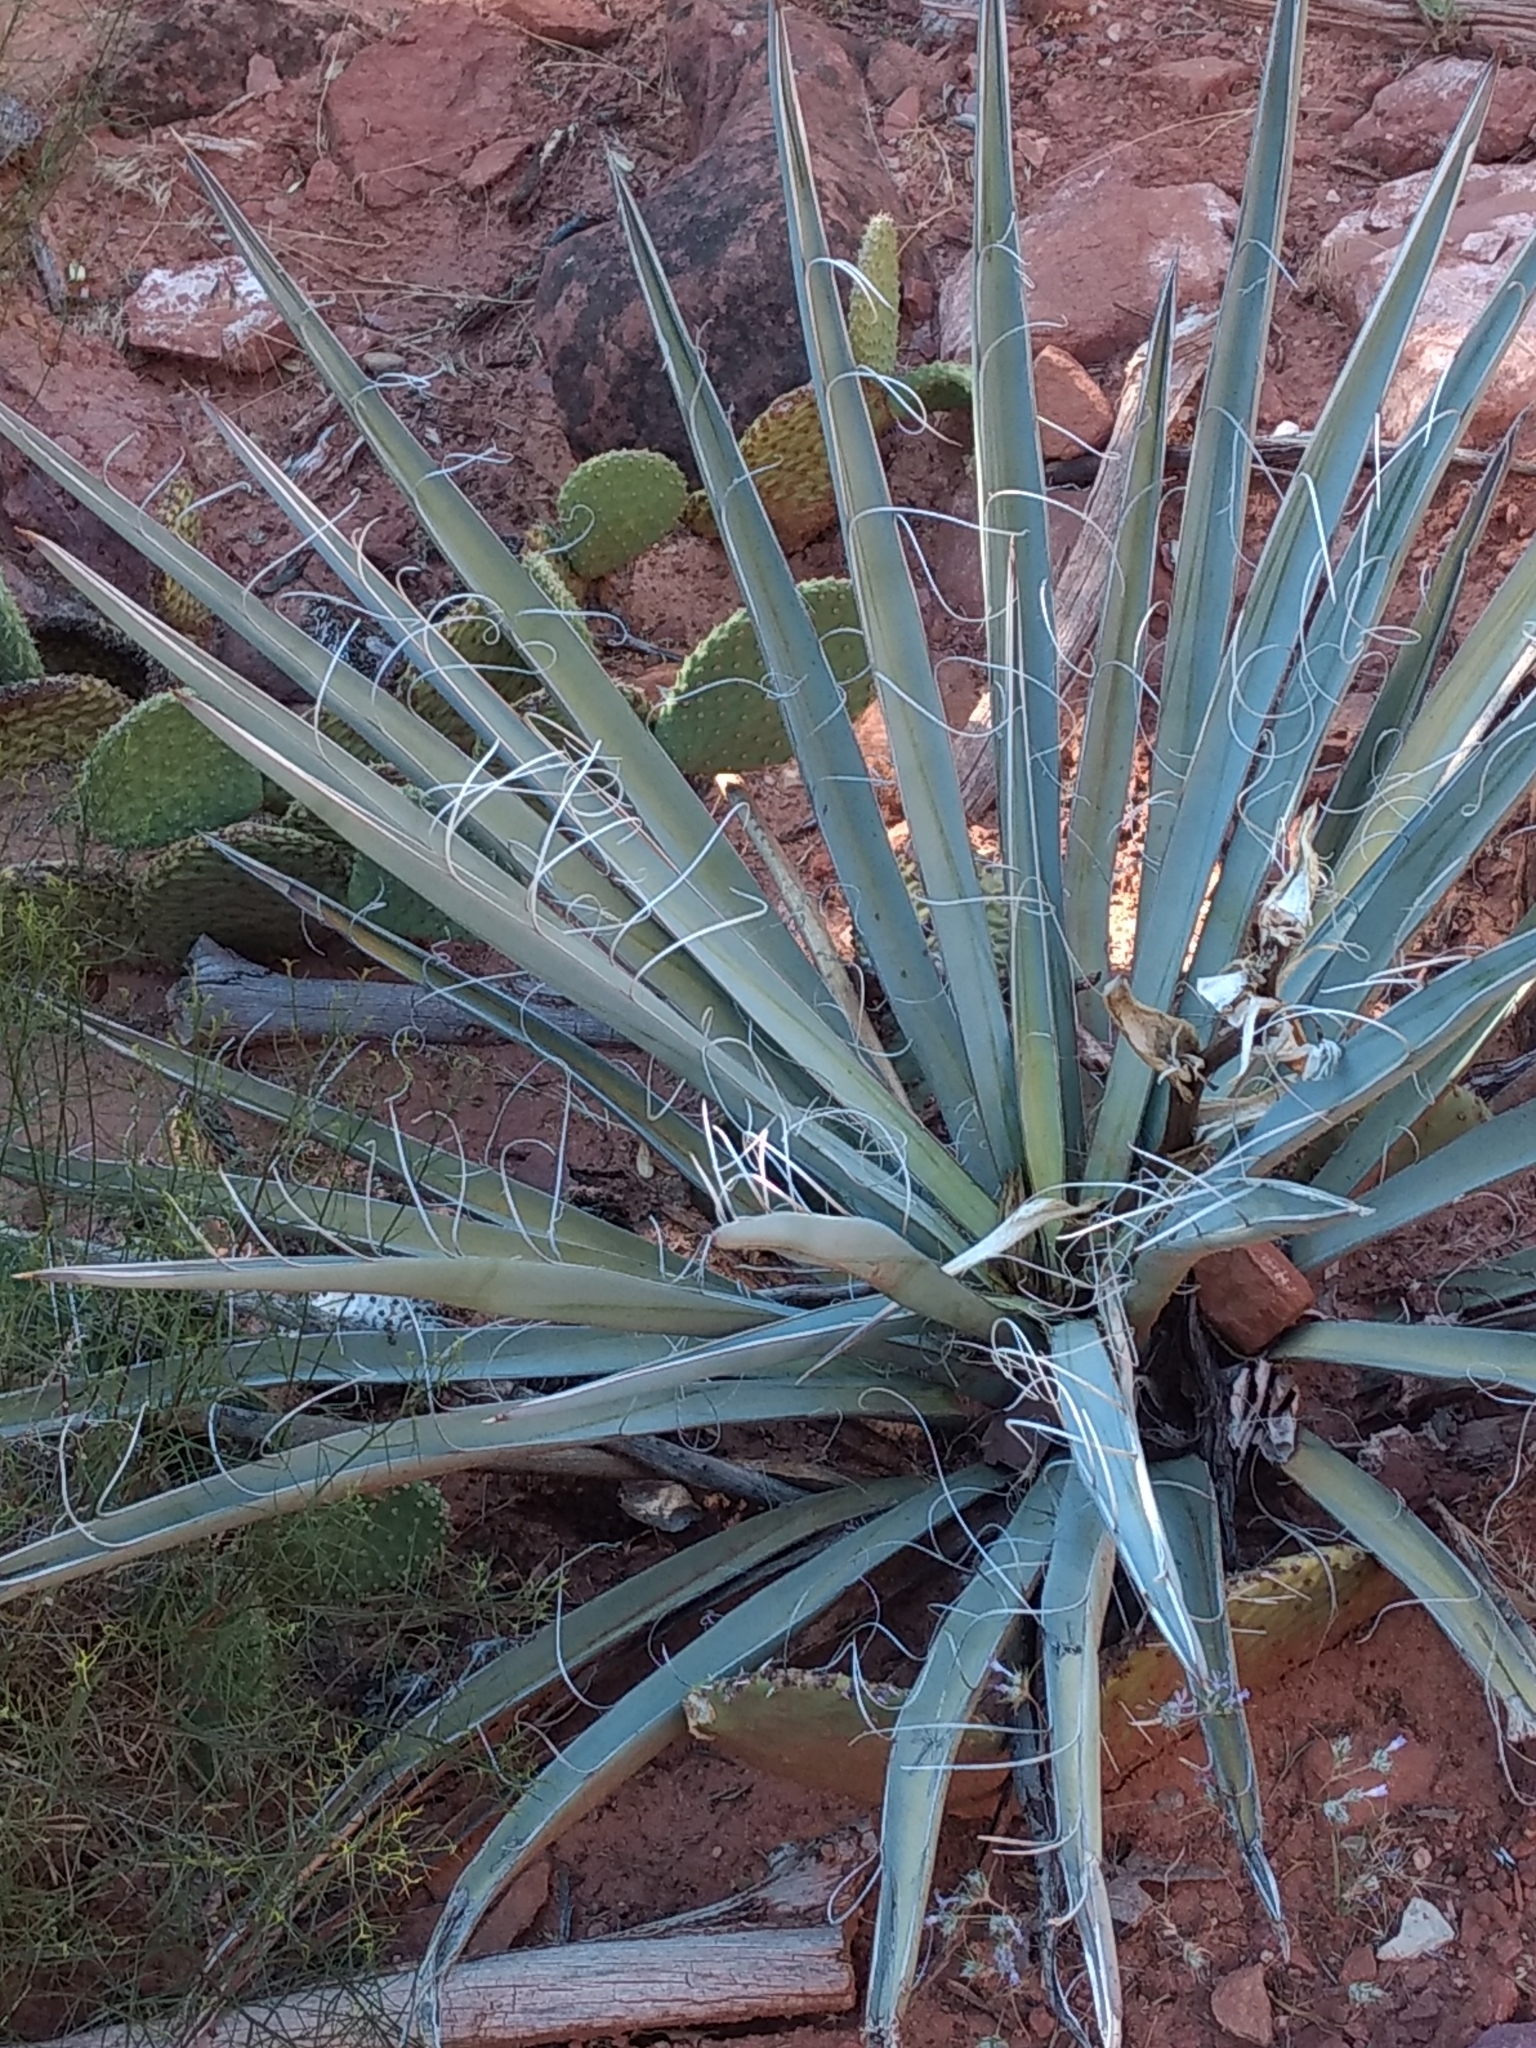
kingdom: Plantae
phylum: Tracheophyta
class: Liliopsida
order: Asparagales
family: Asparagaceae
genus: Yucca
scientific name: Yucca baccata
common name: Banana yucca
